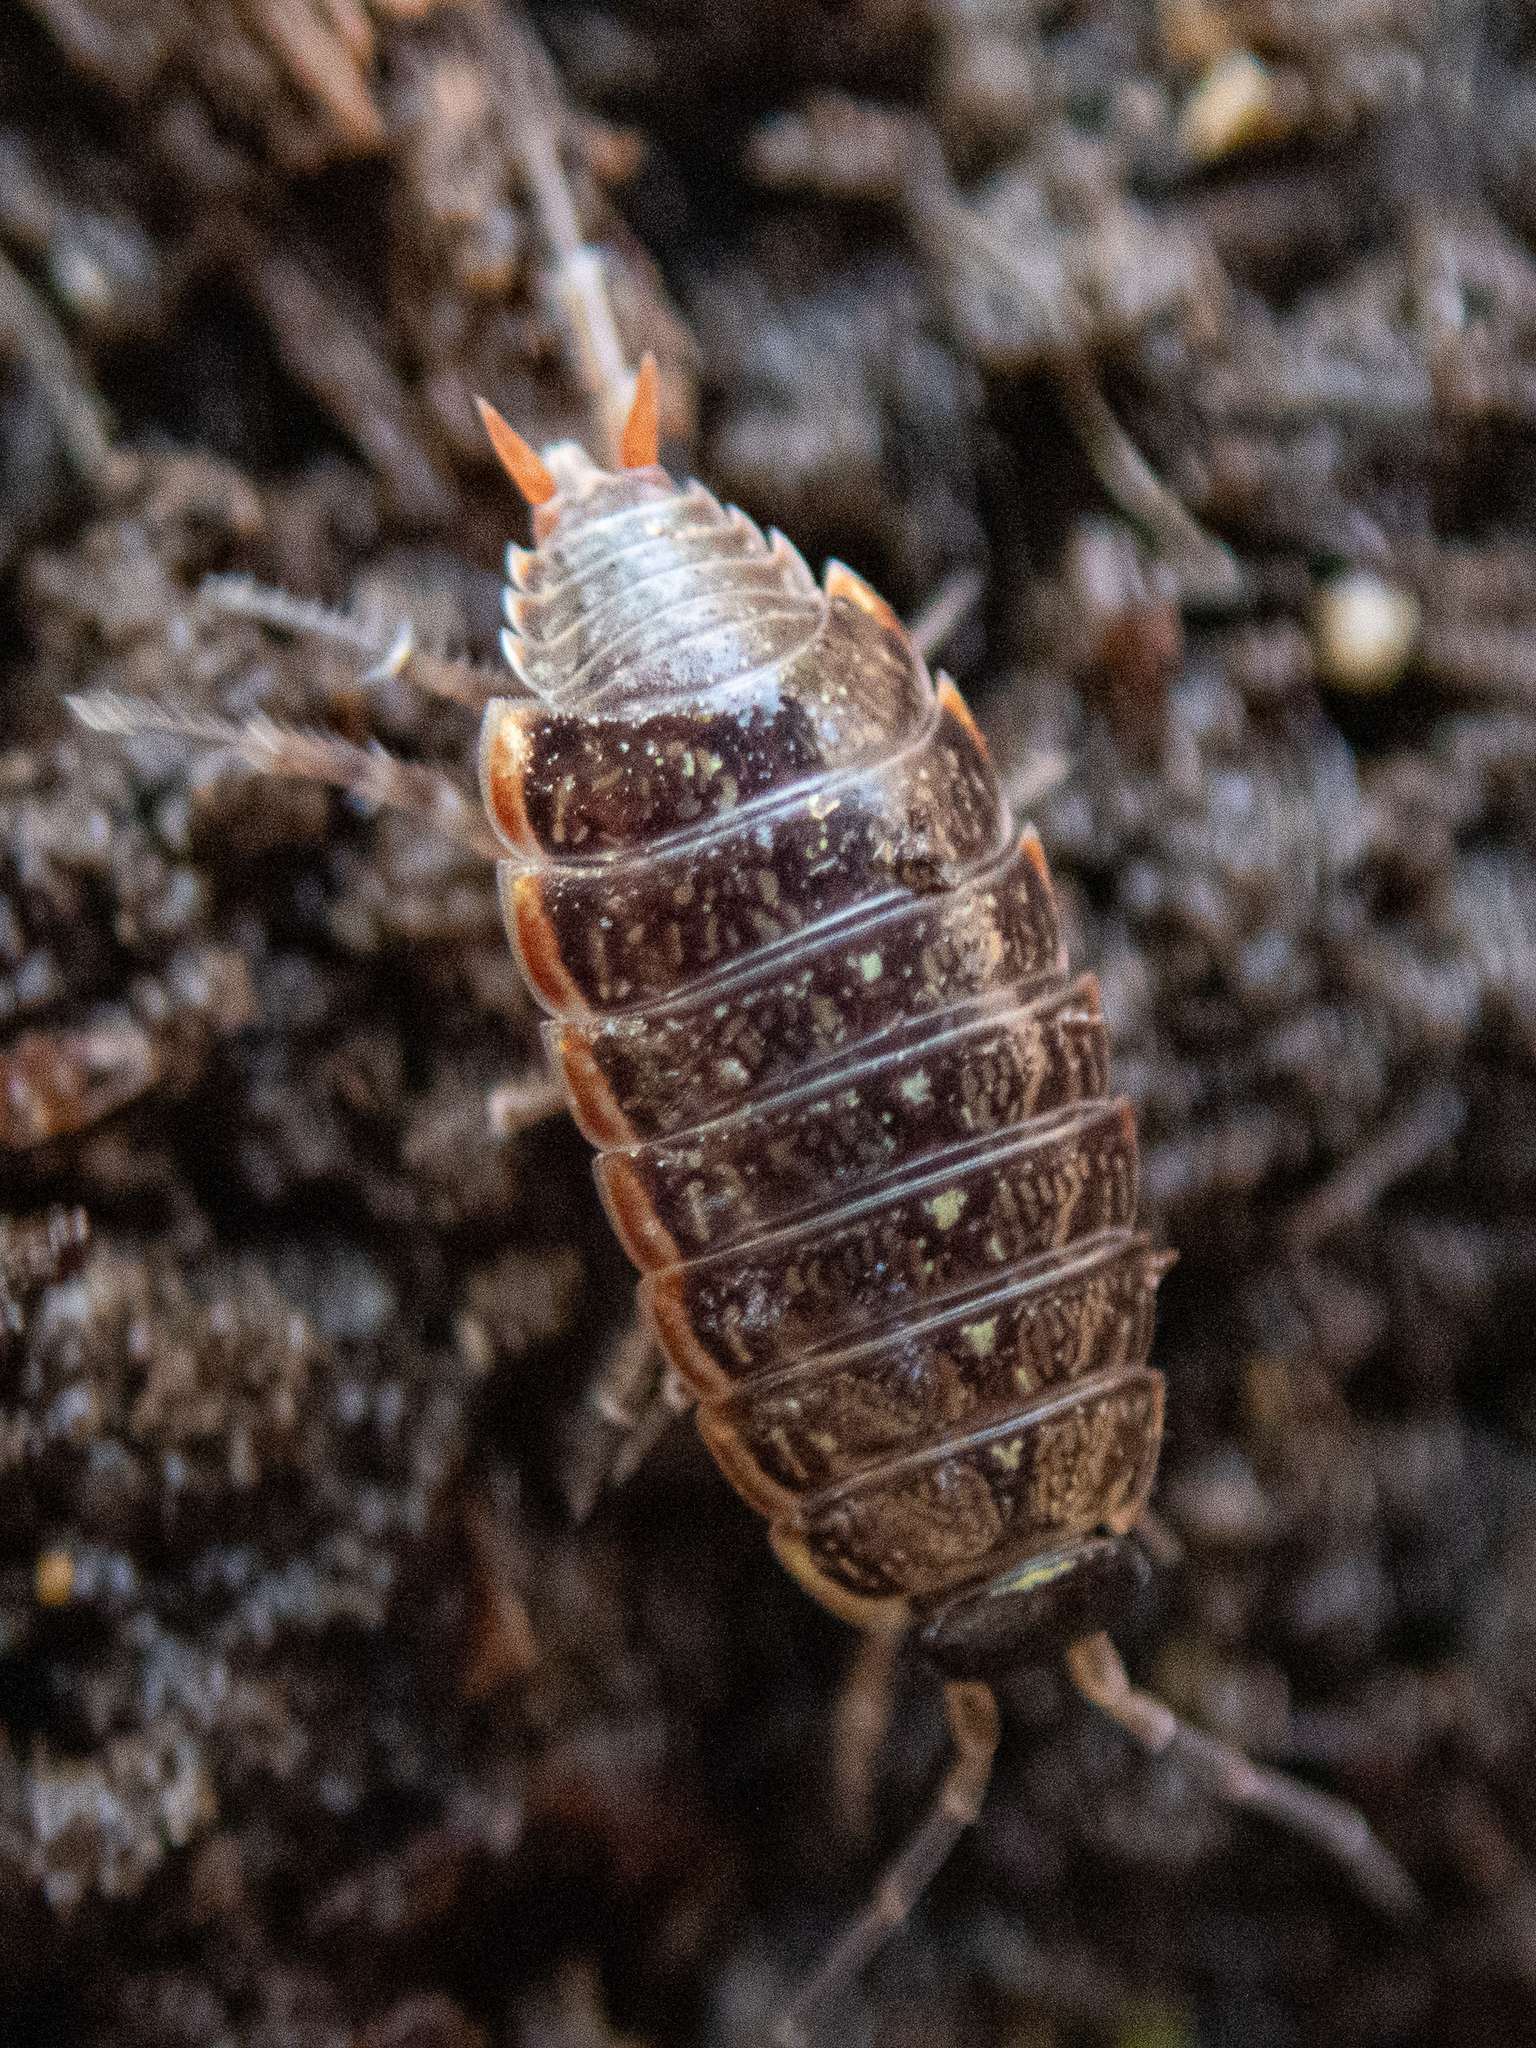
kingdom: Animalia
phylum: Arthropoda
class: Malacostraca
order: Isopoda
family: Philosciidae
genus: Philoscia
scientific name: Philoscia muscorum
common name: Common striped woodlouse
